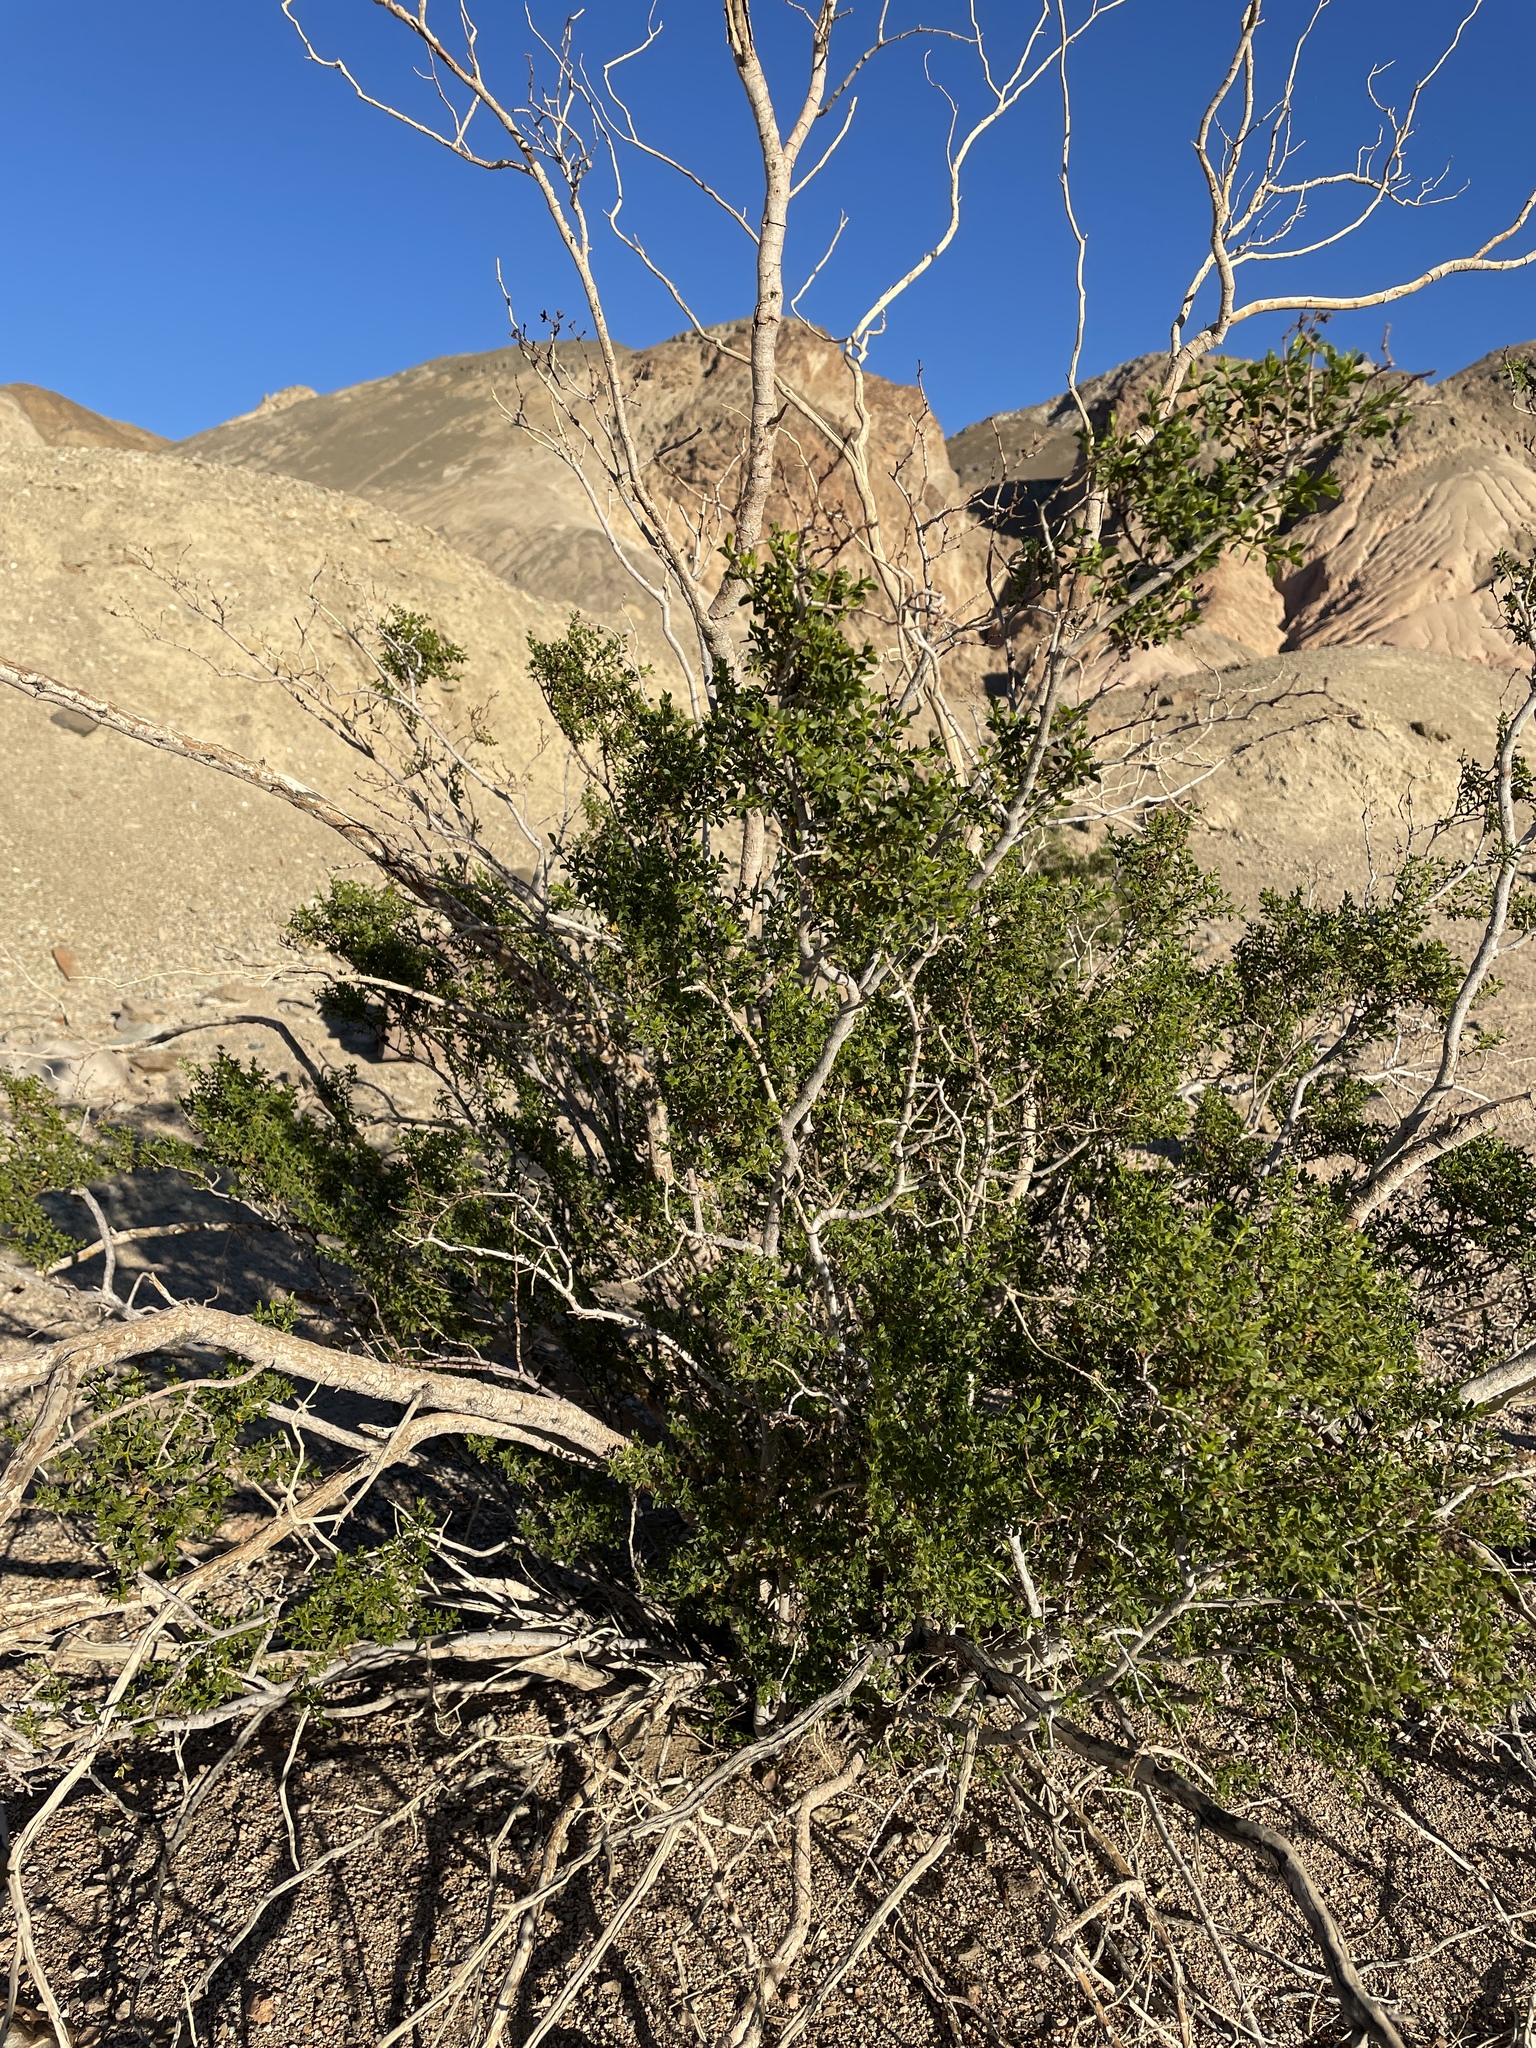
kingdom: Plantae
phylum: Tracheophyta
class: Magnoliopsida
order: Zygophyllales
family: Zygophyllaceae
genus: Larrea
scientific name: Larrea tridentata
